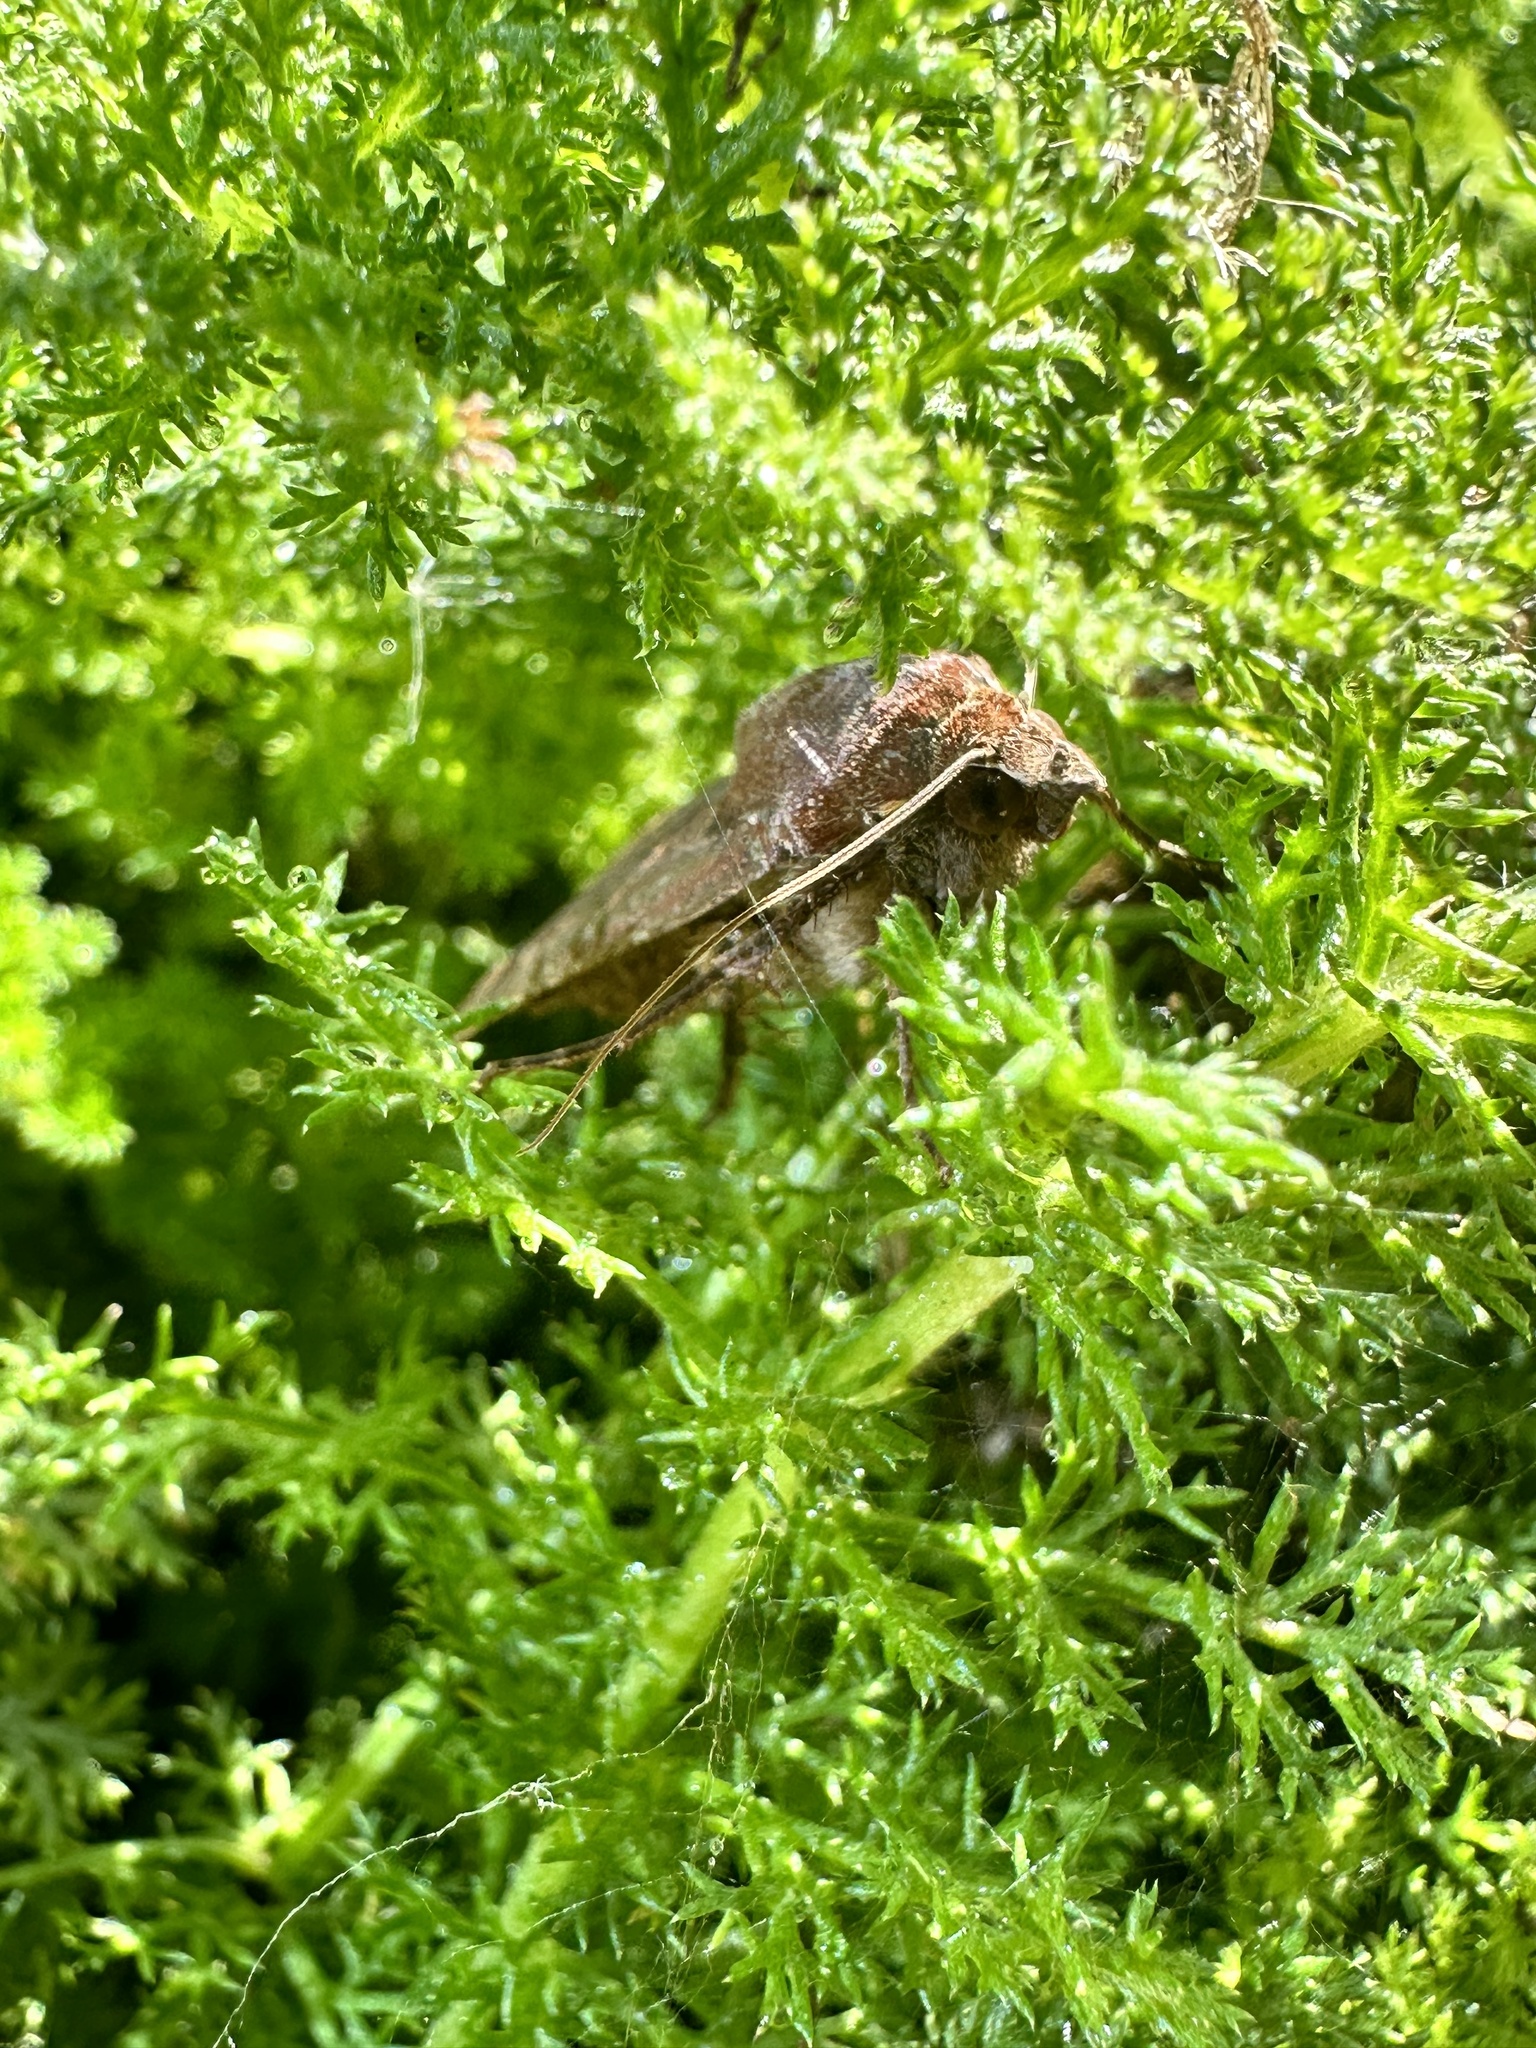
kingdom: Animalia
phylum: Arthropoda
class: Insecta
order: Lepidoptera
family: Noctuidae
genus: Noctua
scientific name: Noctua pronuba
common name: Large yellow underwing
